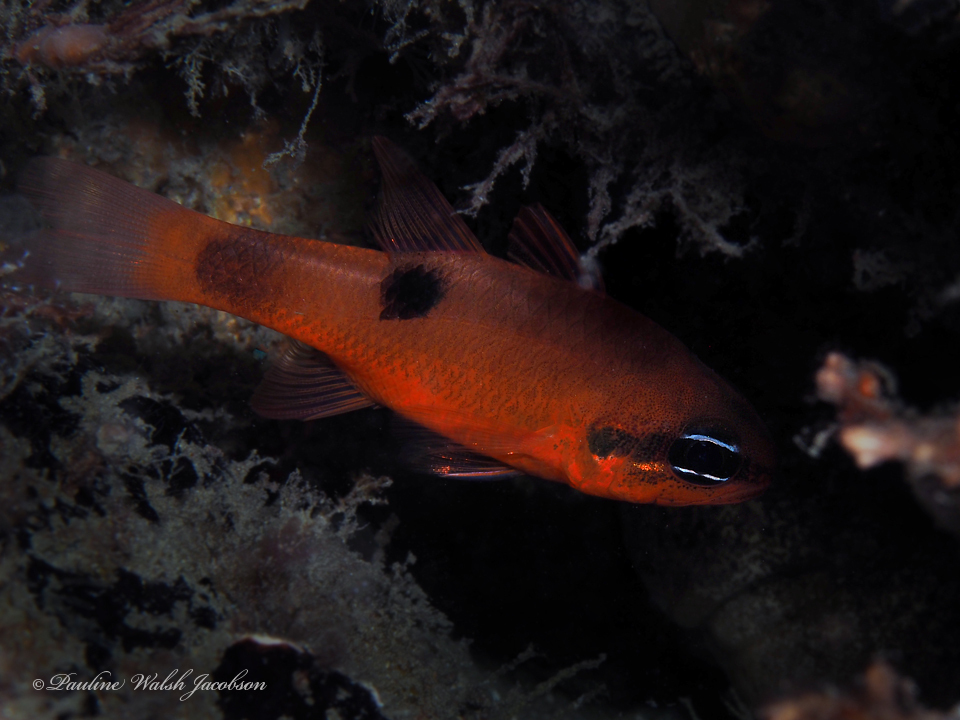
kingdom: Animalia
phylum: Chordata
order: Perciformes
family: Apogonidae
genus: Apogon
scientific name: Apogon maculatus
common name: Flamefish
